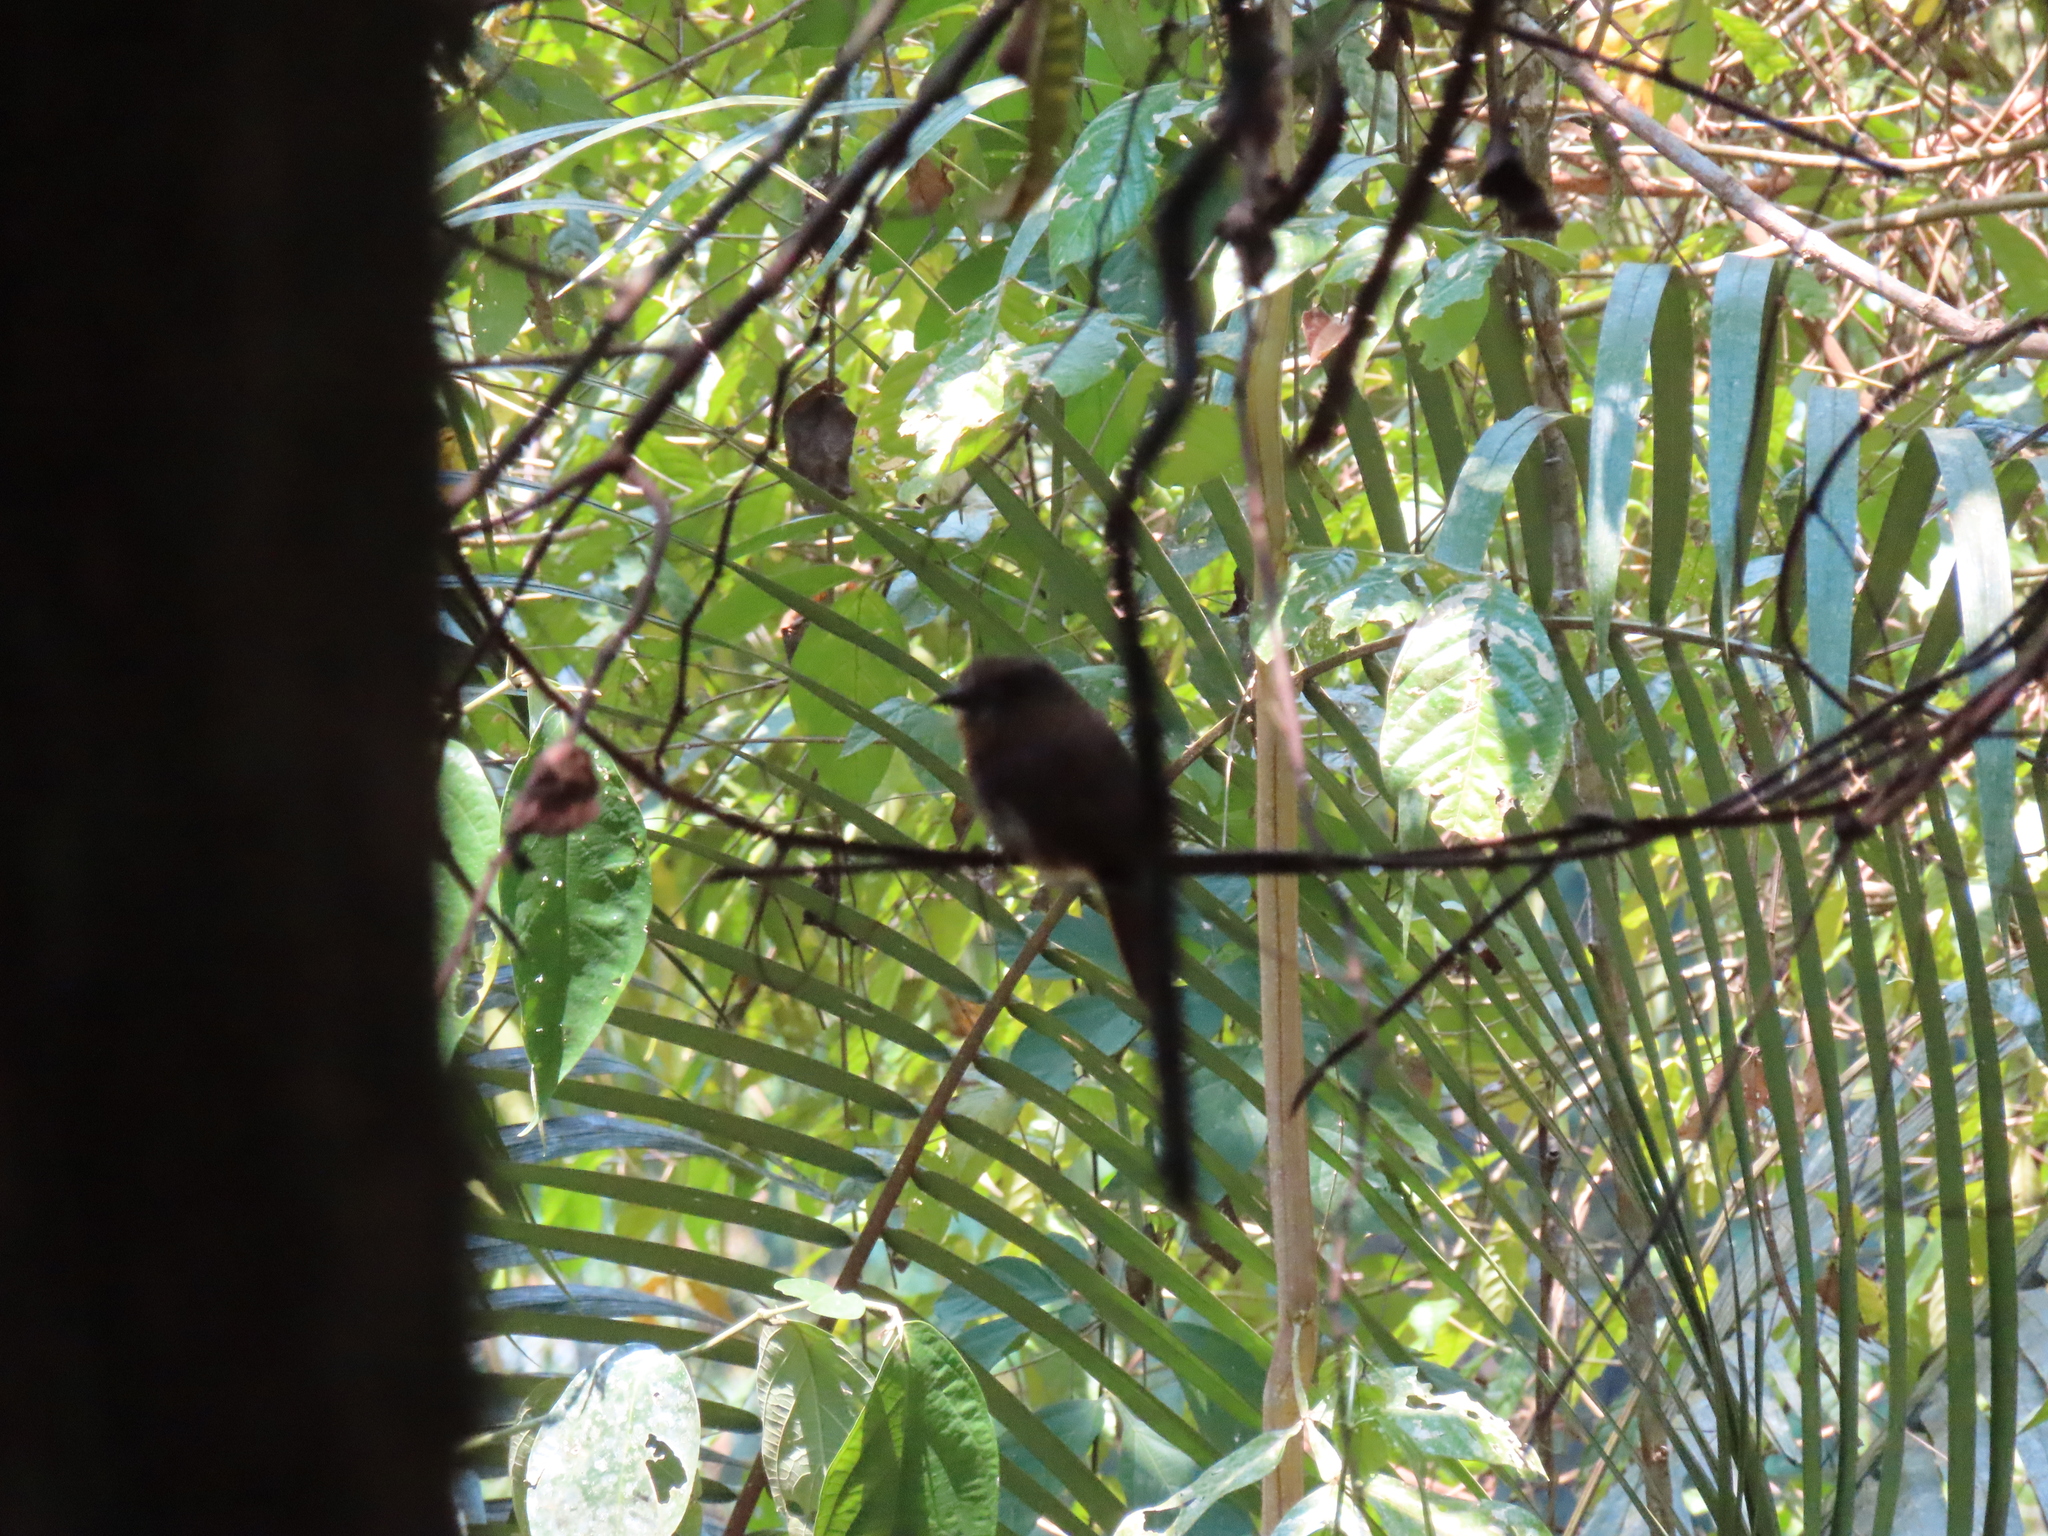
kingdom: Animalia
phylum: Chordata
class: Aves
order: Piciformes
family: Bucconidae
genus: Malacoptila
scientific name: Malacoptila panamensis
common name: White-whiskered puffbird
